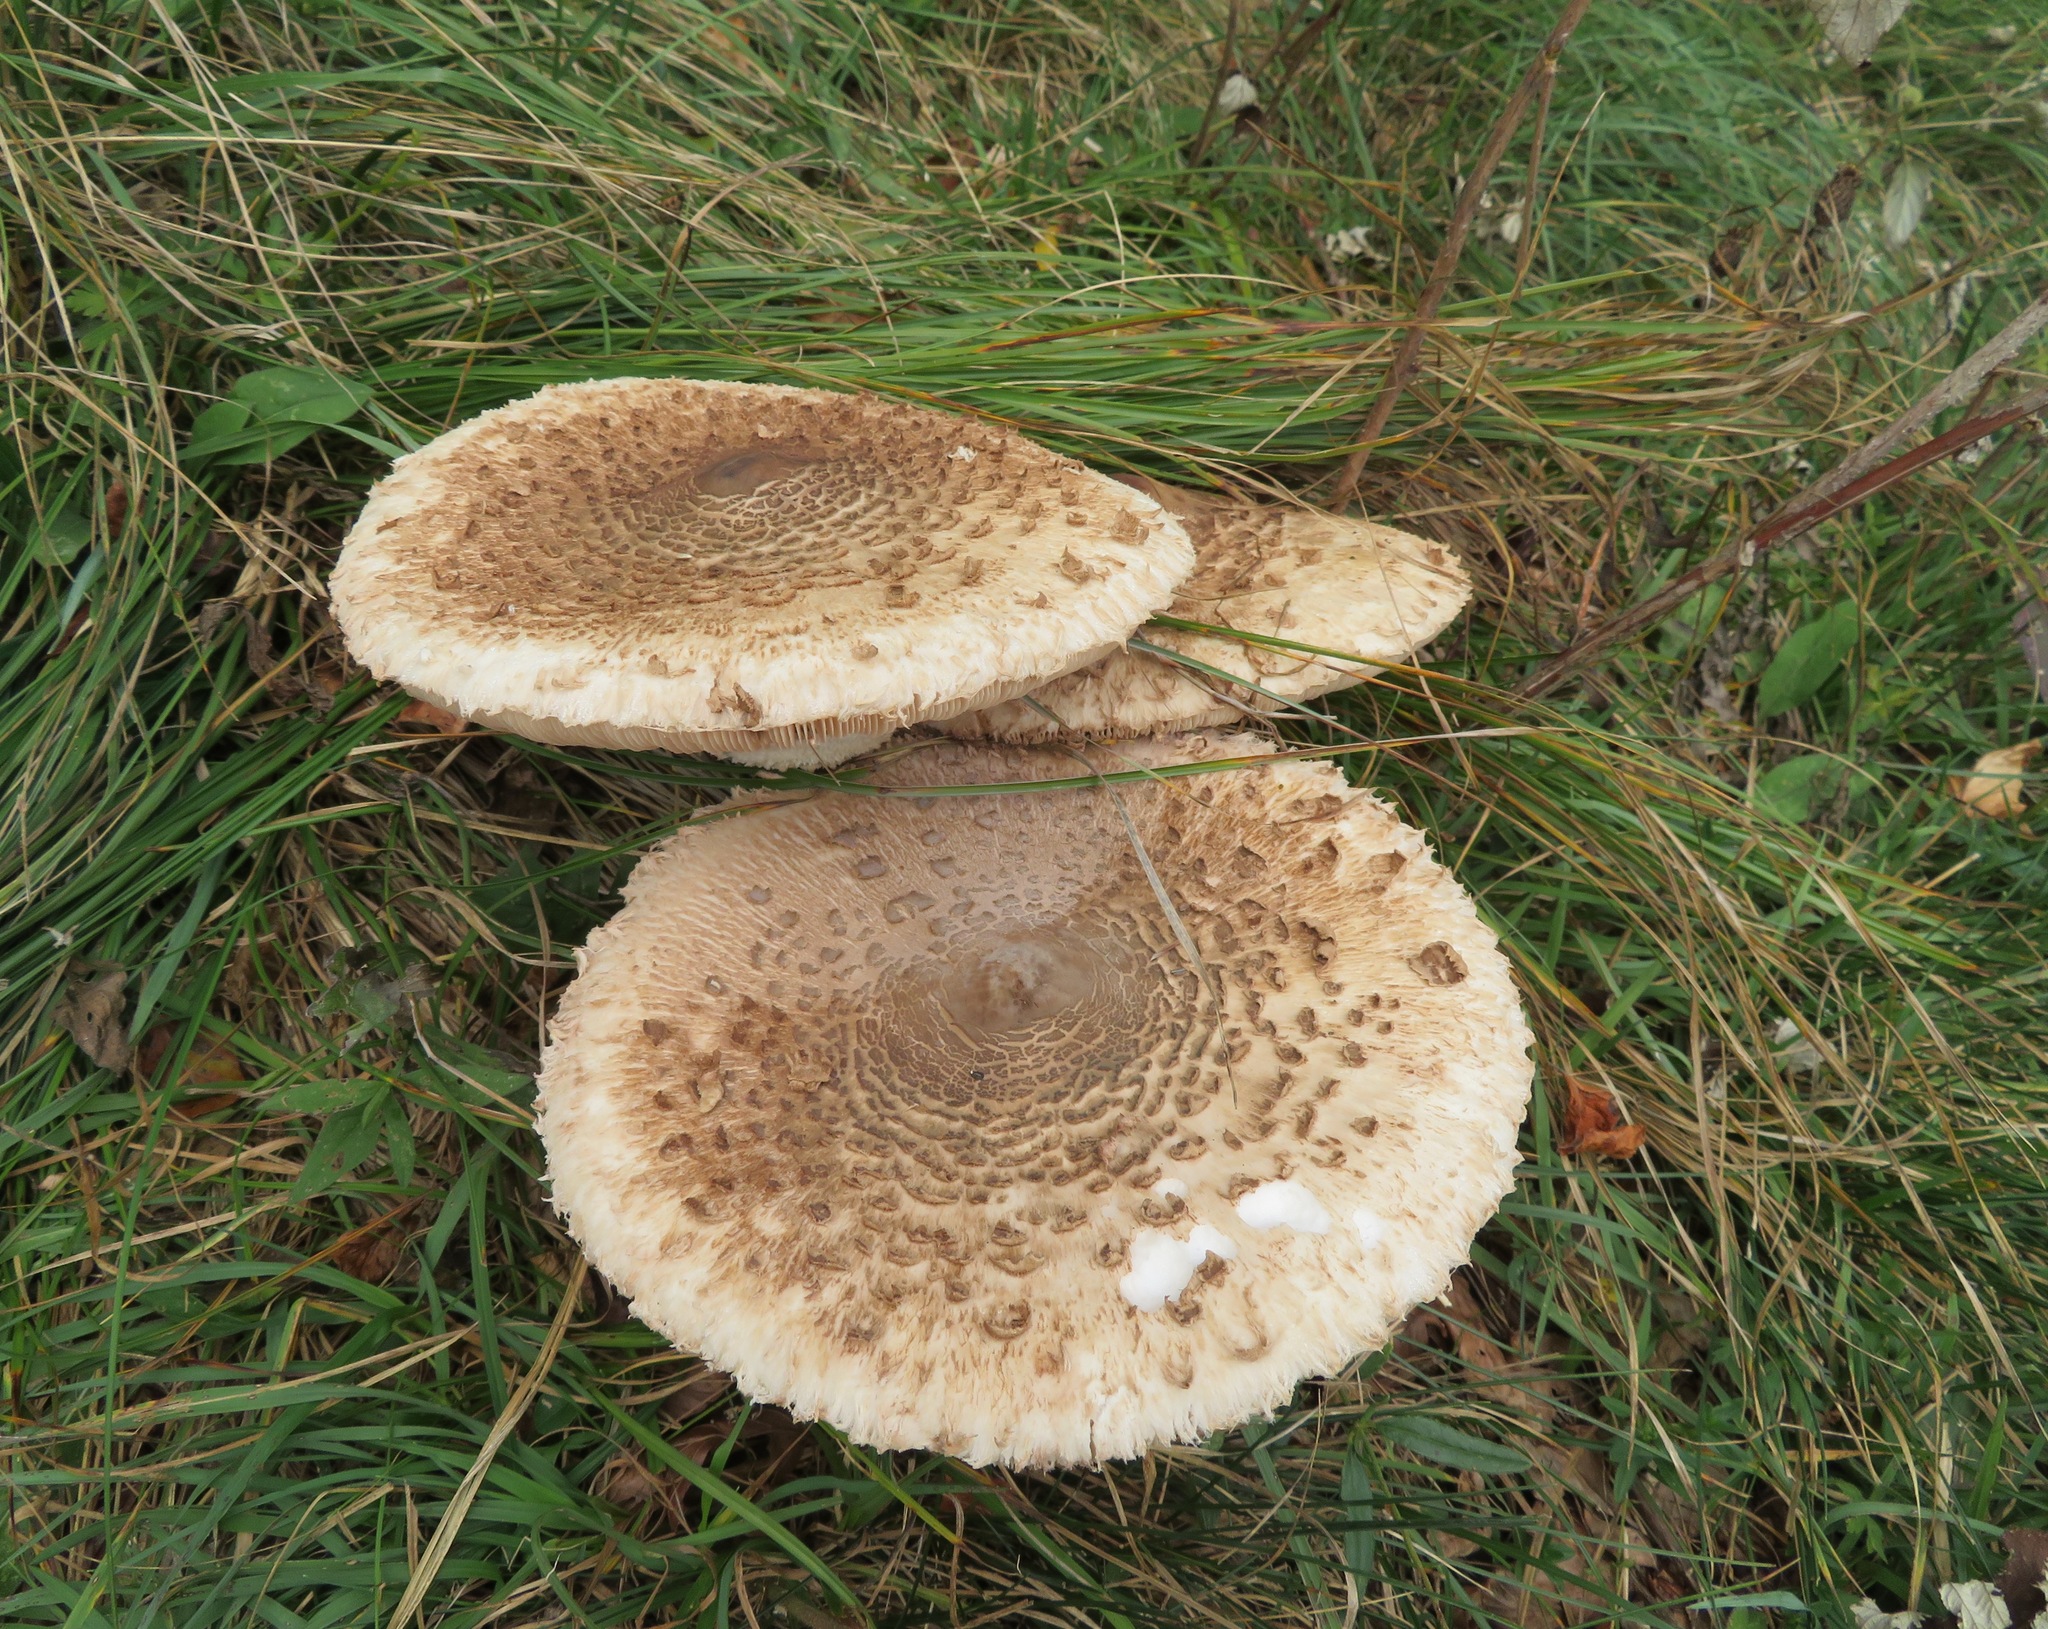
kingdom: Fungi
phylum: Basidiomycota
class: Agaricomycetes
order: Agaricales
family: Agaricaceae
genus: Macrolepiota
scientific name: Macrolepiota procera
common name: Parasol
